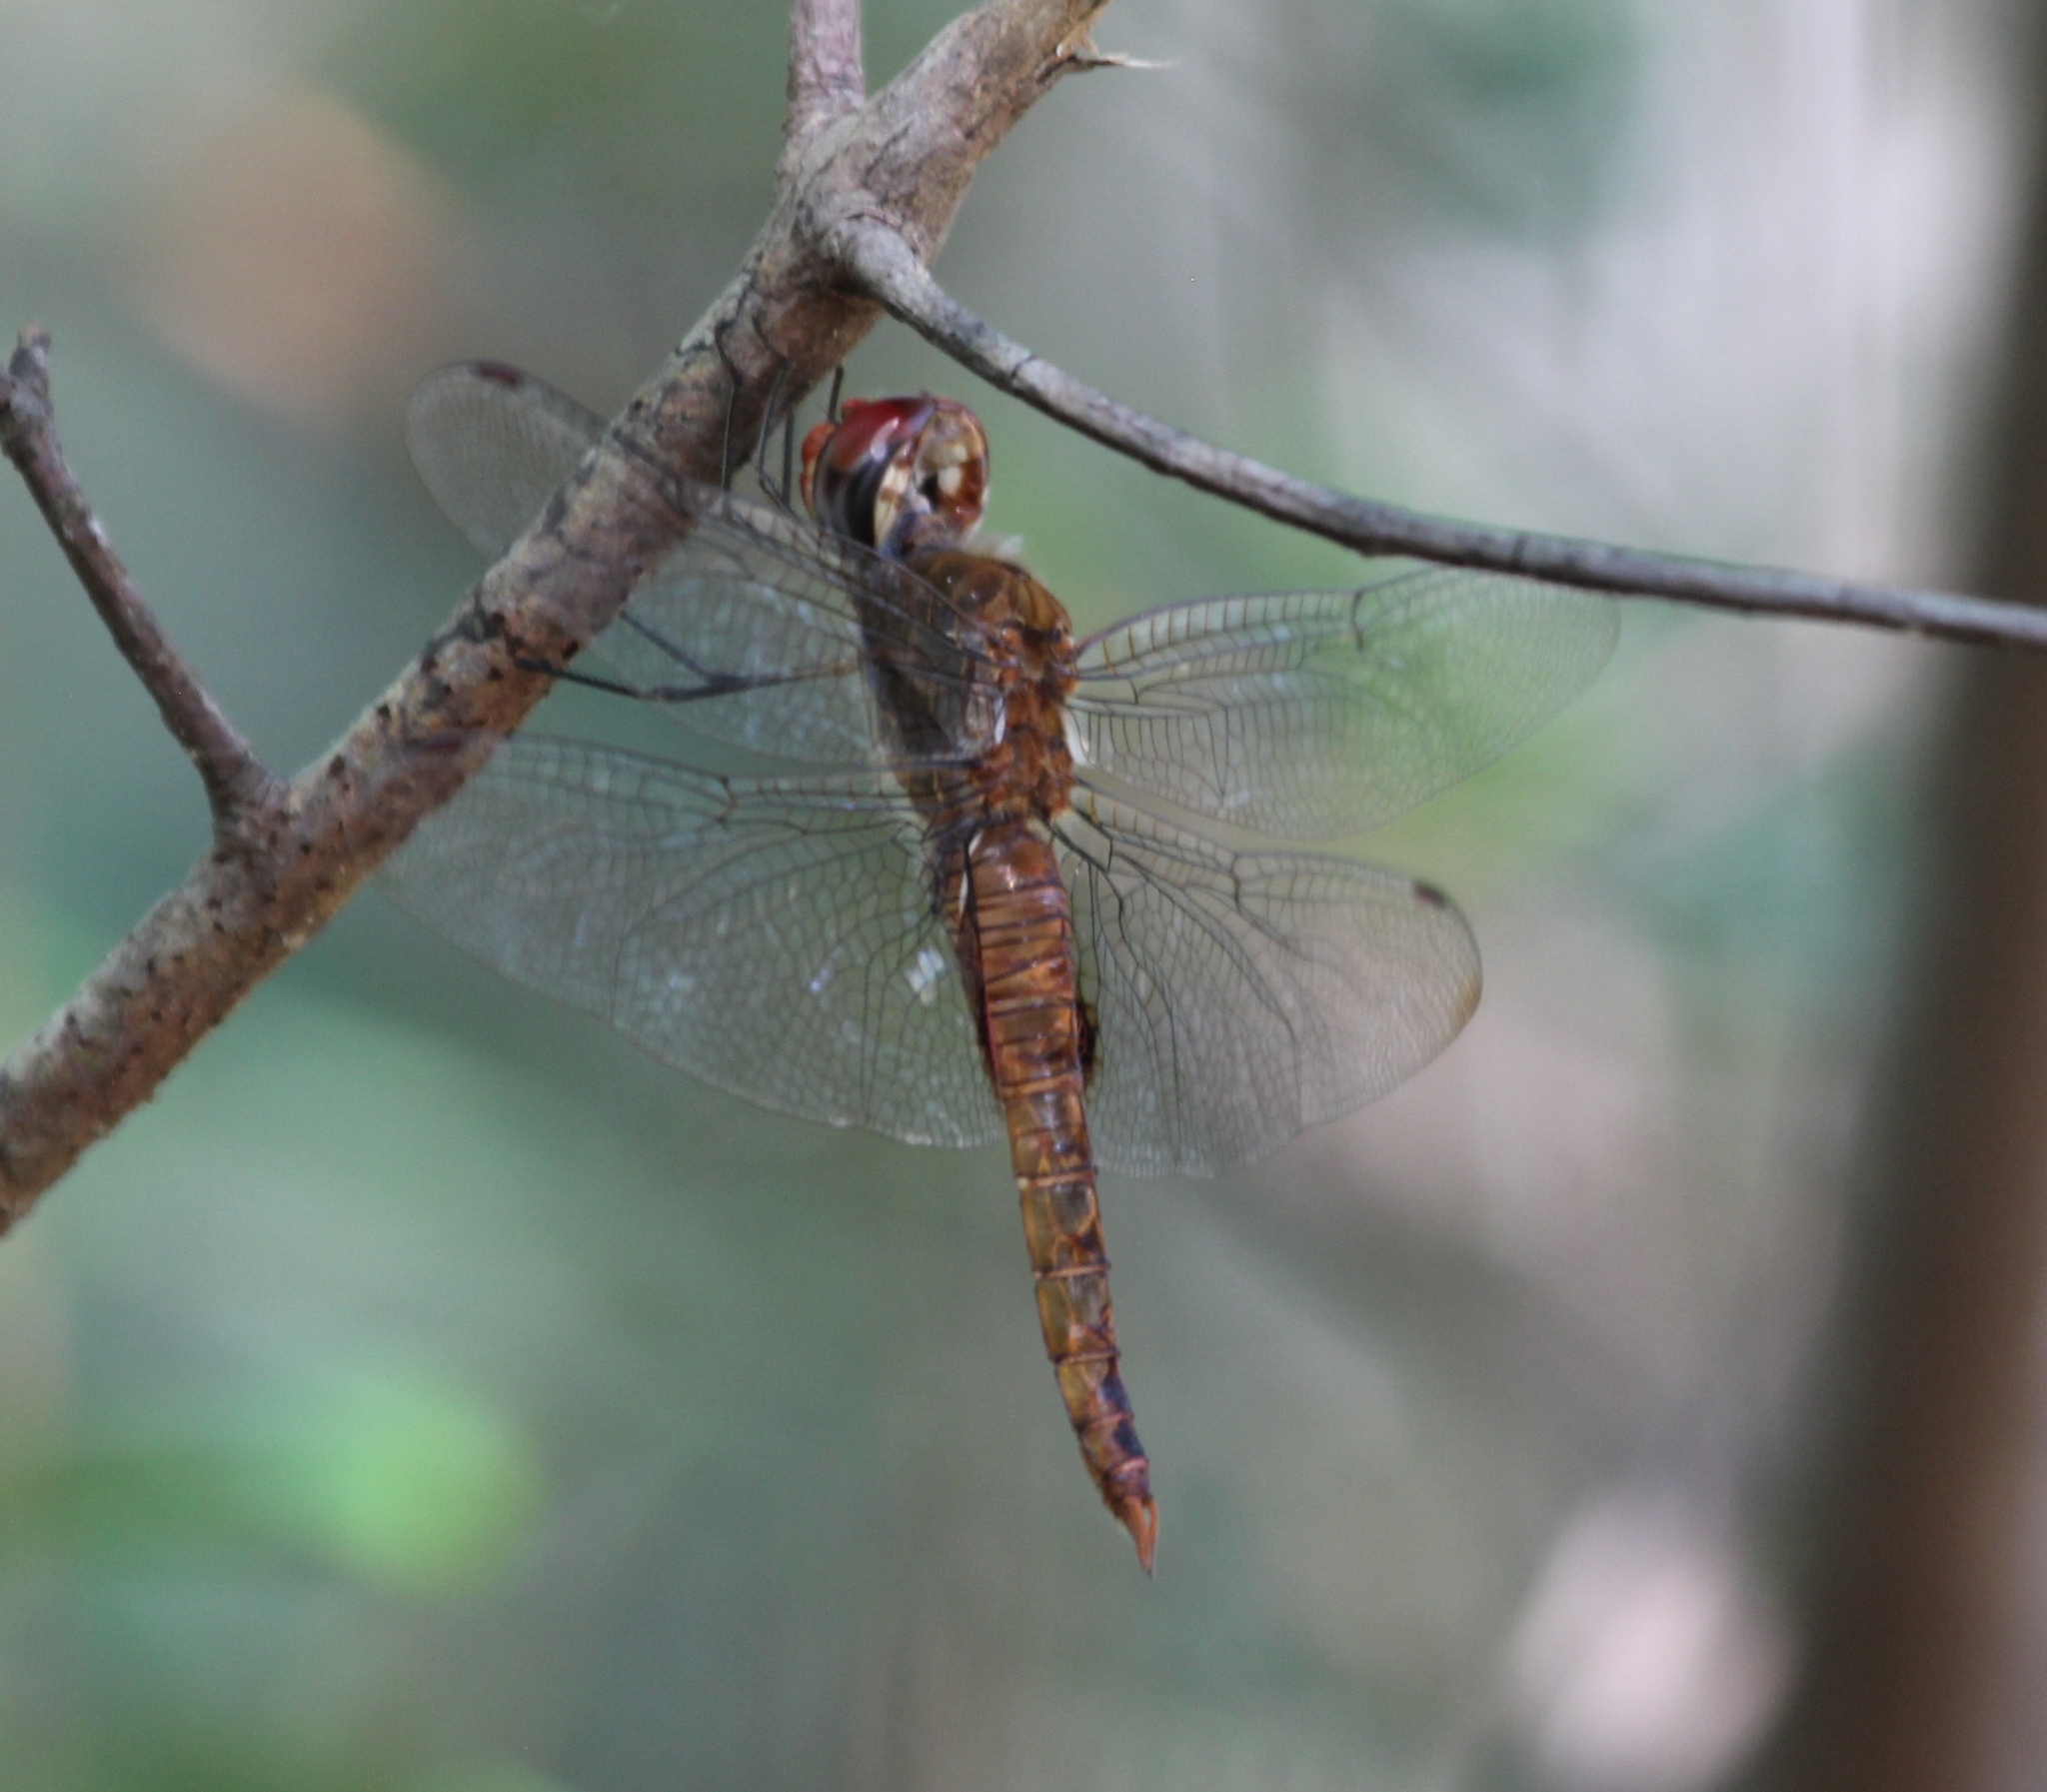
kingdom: Animalia
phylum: Arthropoda
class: Insecta
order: Odonata
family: Libellulidae
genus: Pantala
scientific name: Pantala hymenaea
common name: Spot-winged glider
